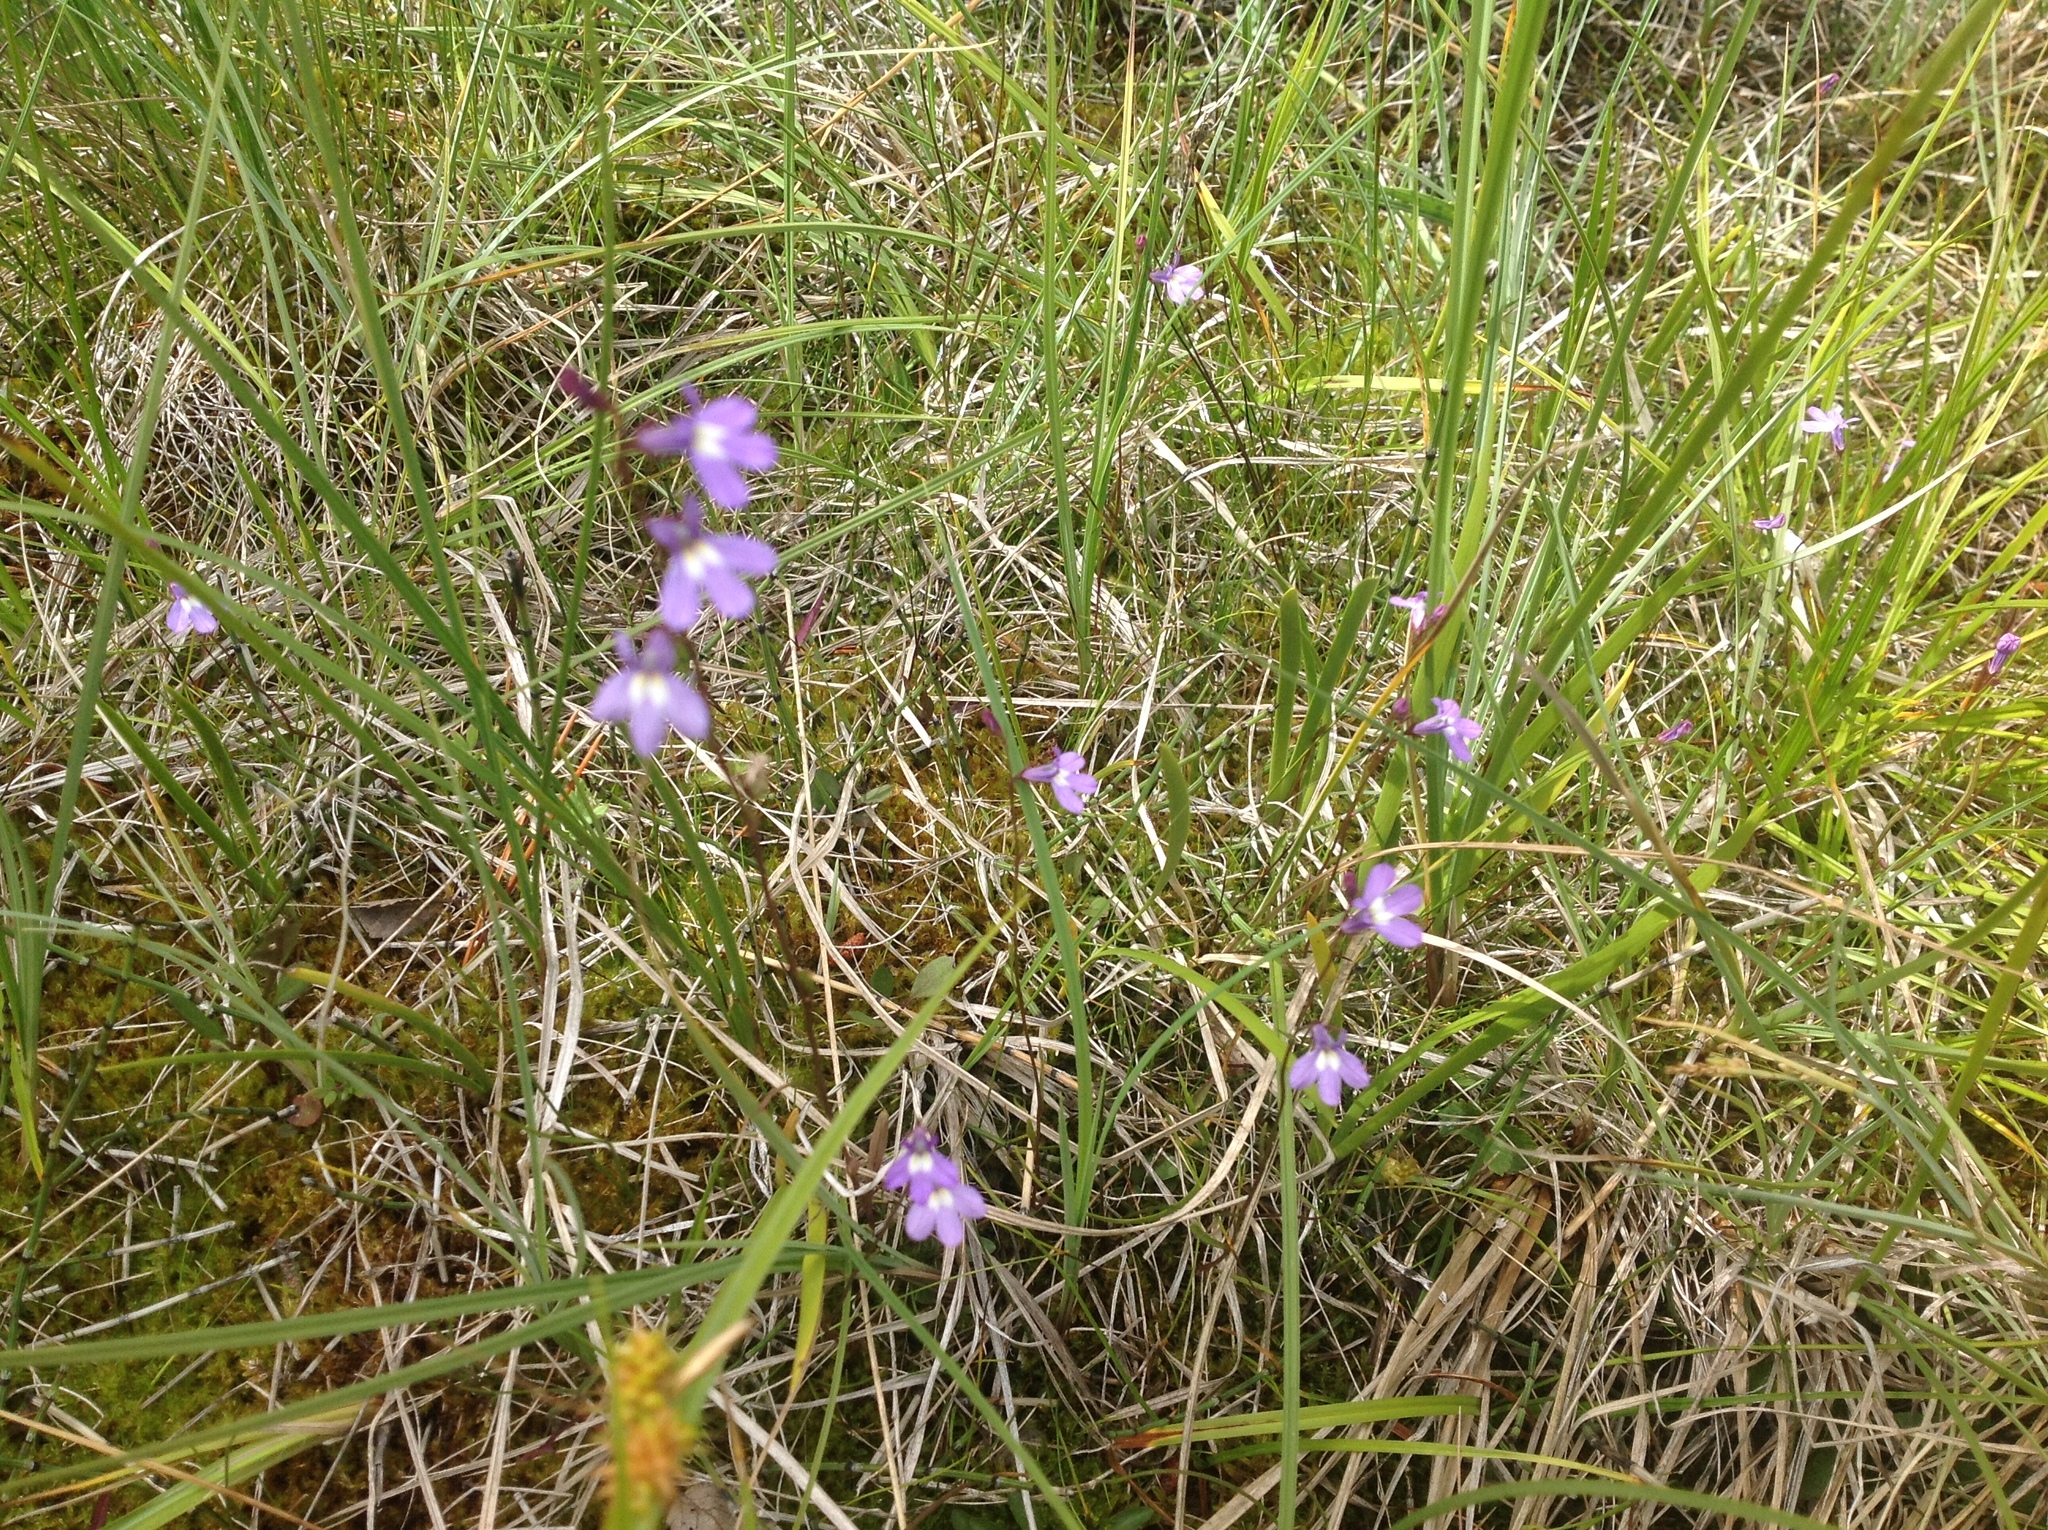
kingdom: Plantae
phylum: Tracheophyta
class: Magnoliopsida
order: Asterales
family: Campanulaceae
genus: Lobelia
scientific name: Lobelia kalmii
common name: Kalm's lobelia
